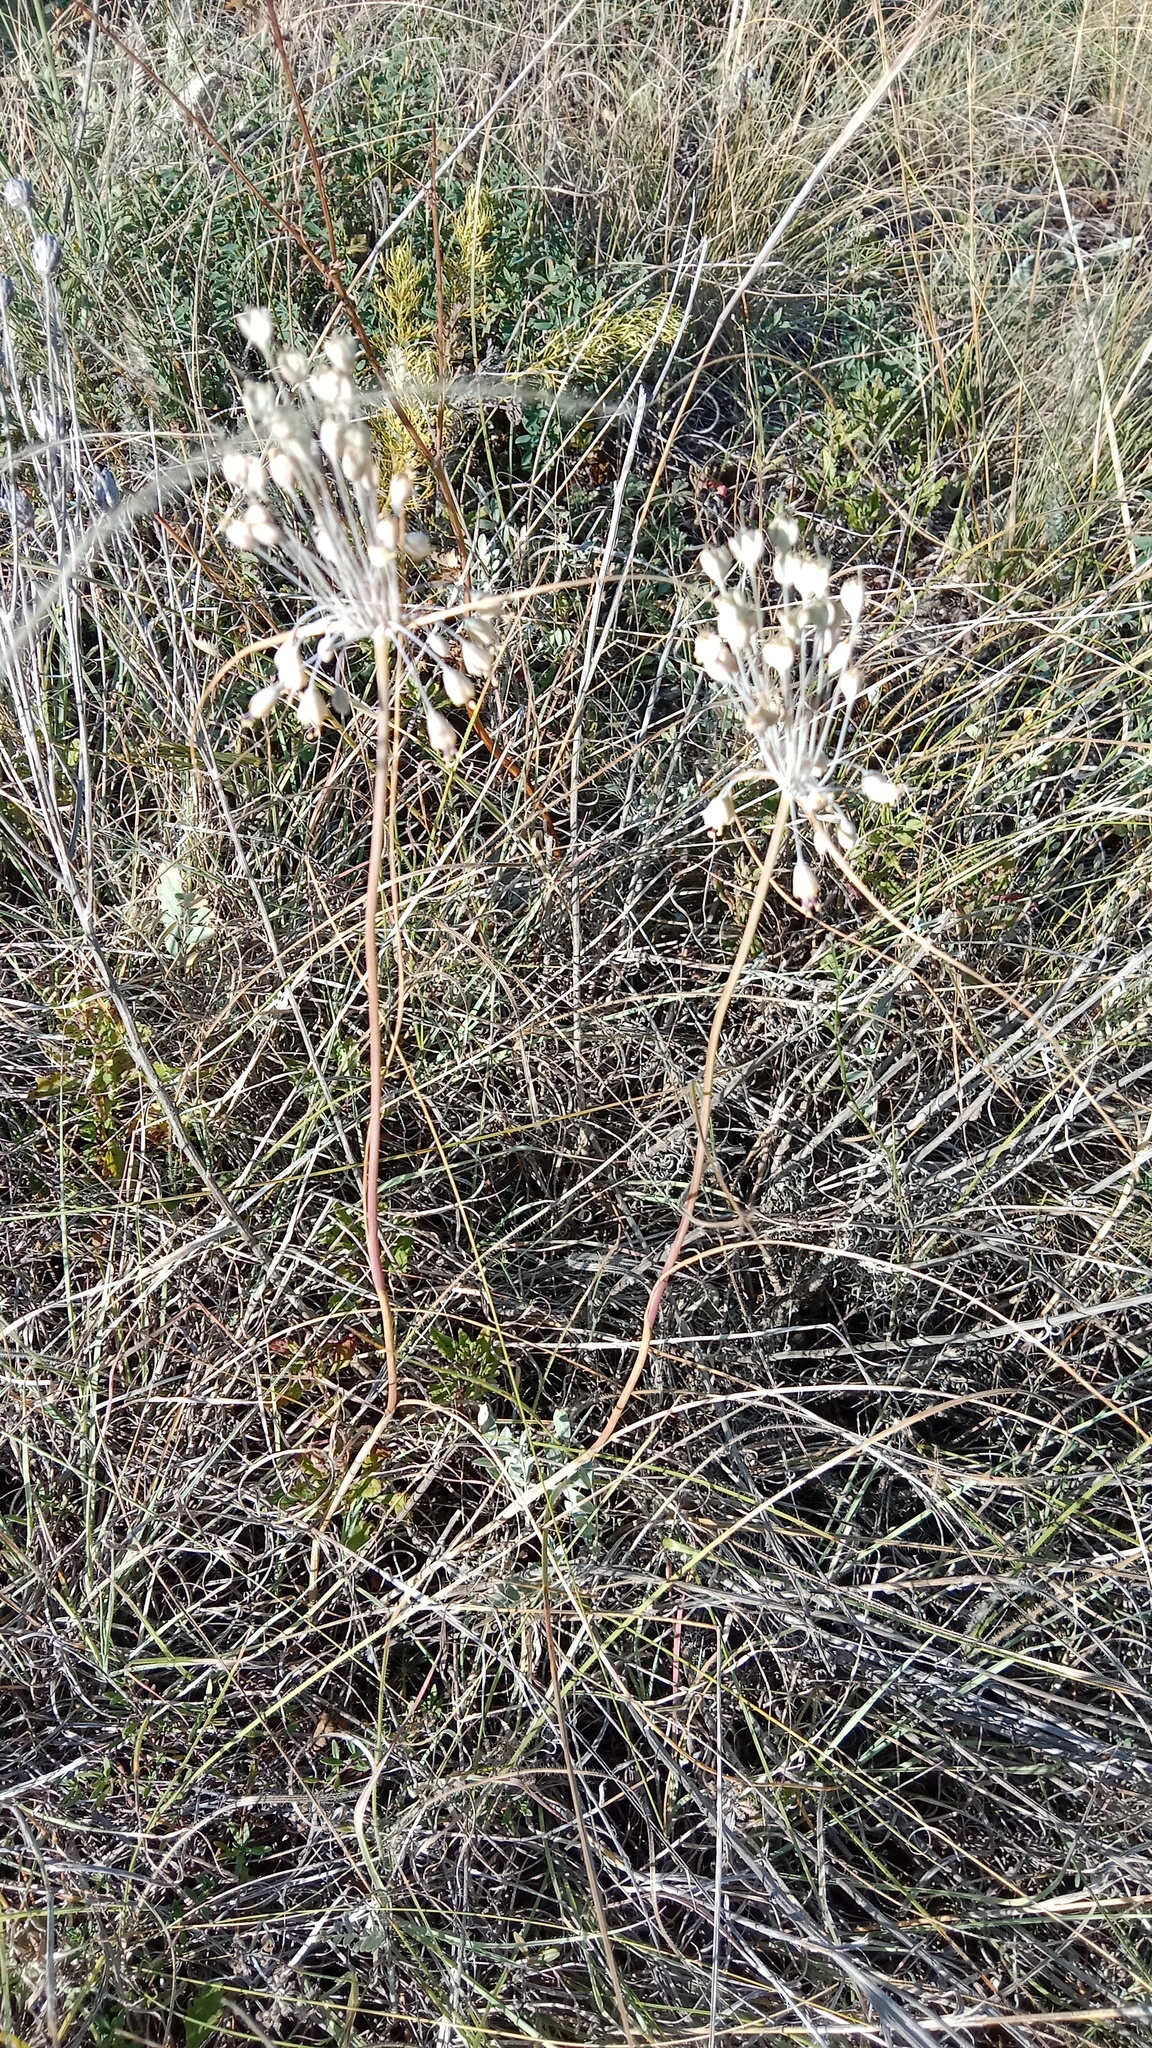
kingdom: Plantae
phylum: Tracheophyta
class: Liliopsida
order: Asparagales
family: Amaryllidaceae
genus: Allium
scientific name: Allium flavum
